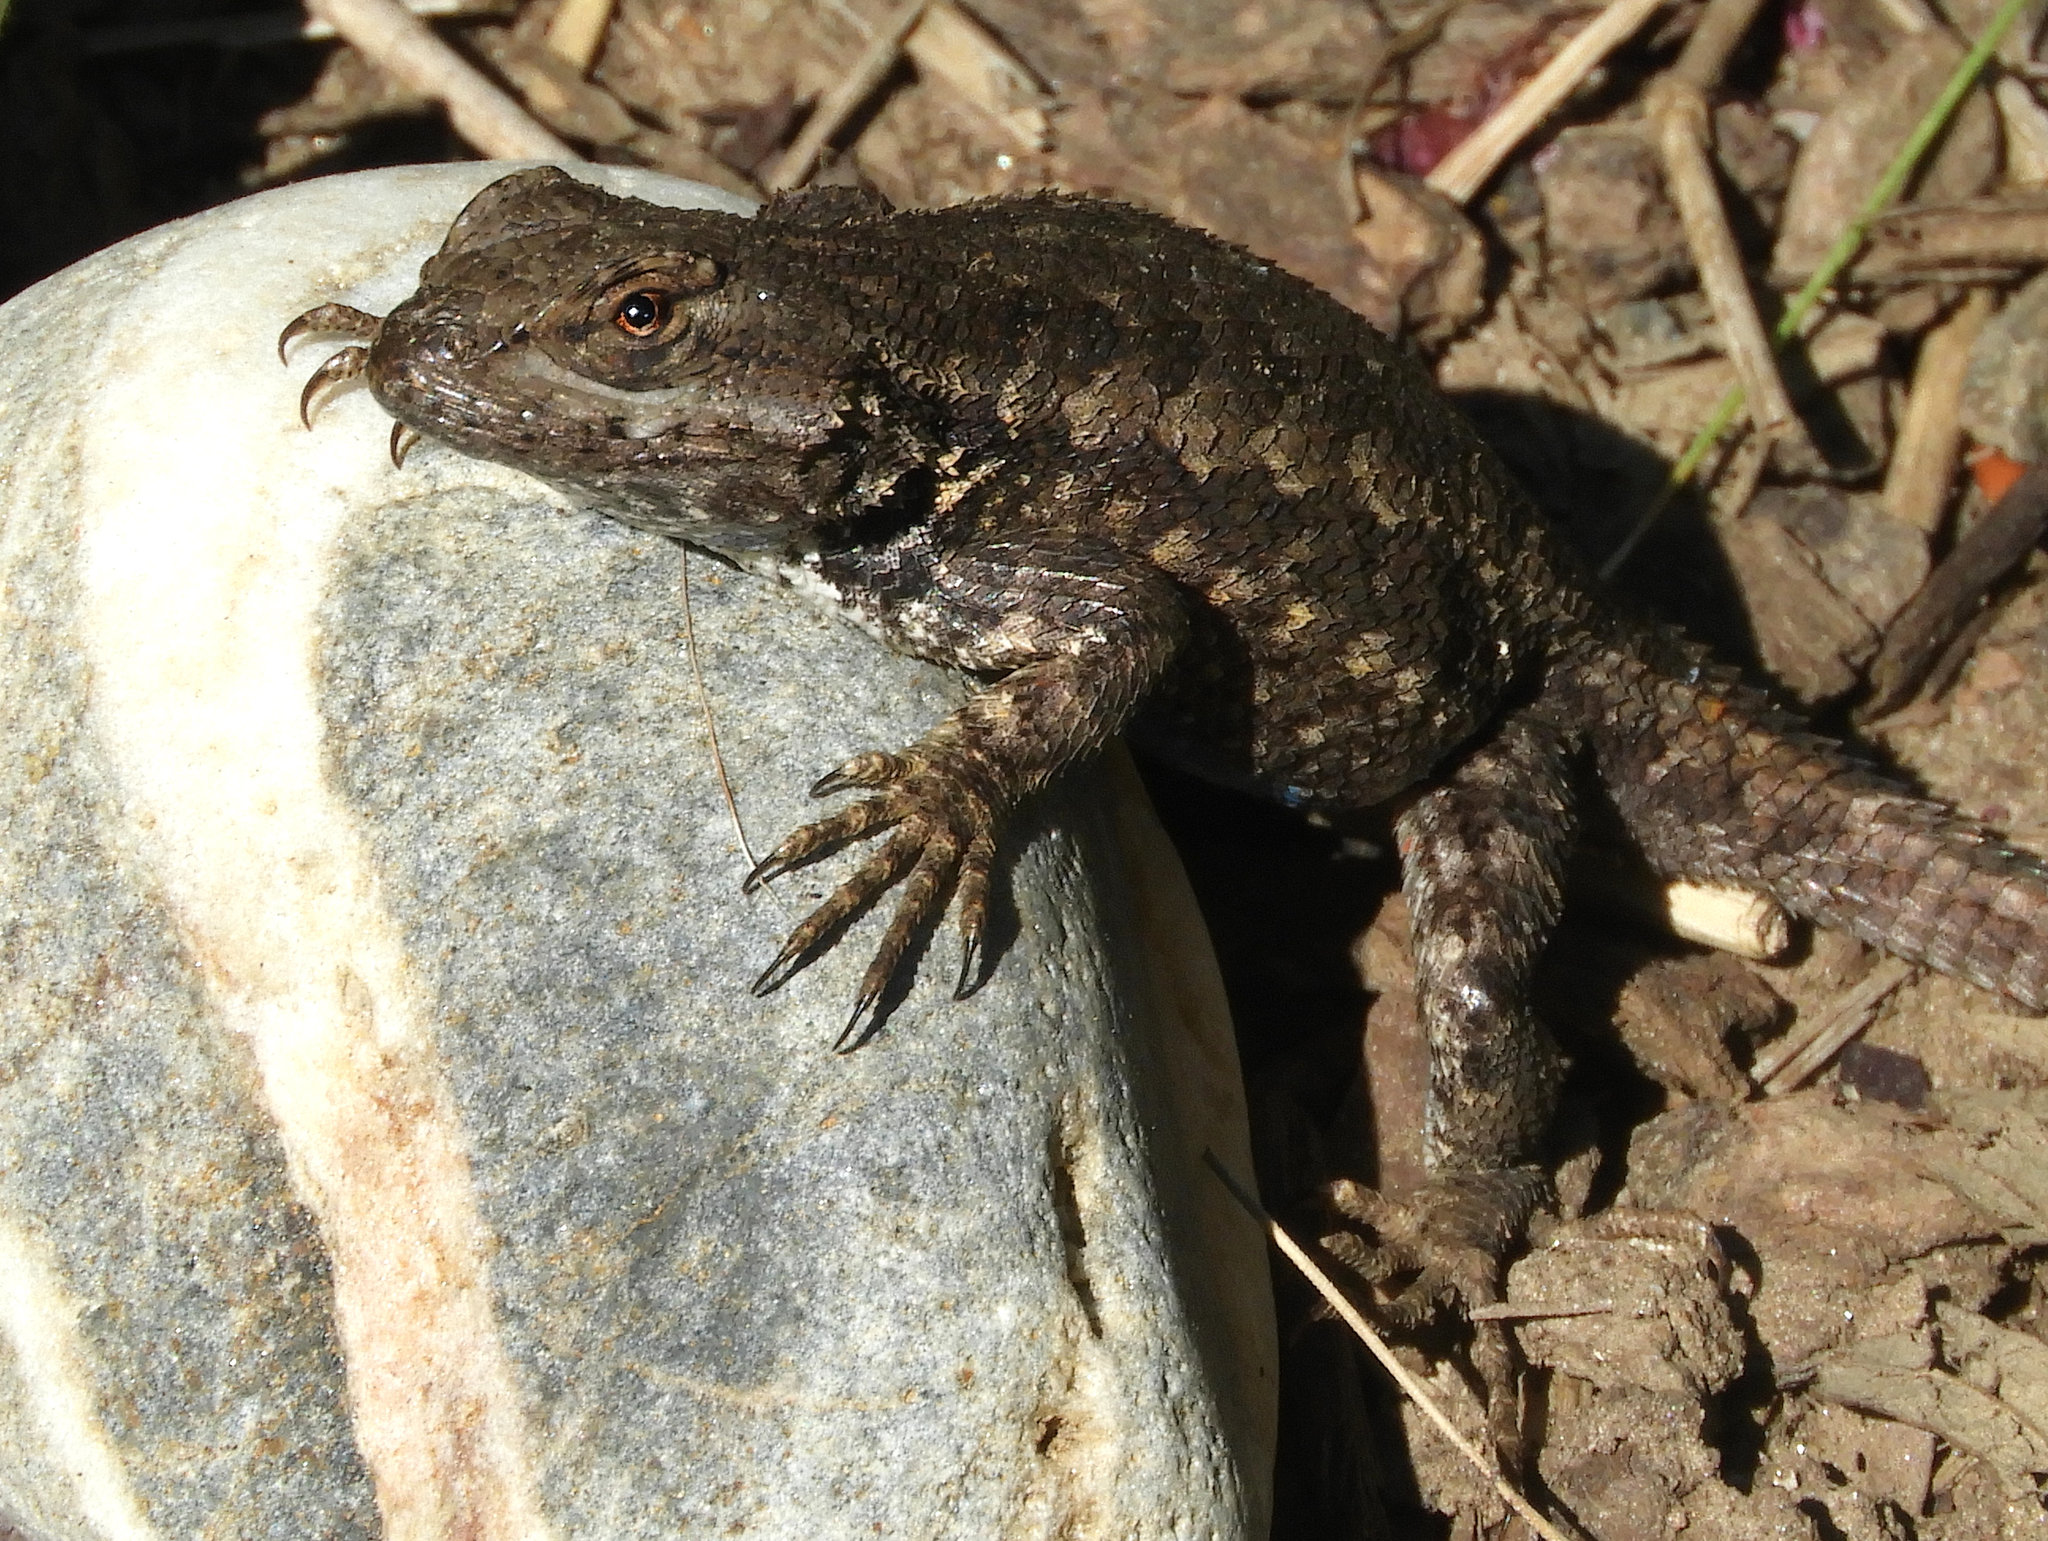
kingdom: Animalia
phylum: Chordata
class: Squamata
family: Phrynosomatidae
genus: Sceloporus
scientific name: Sceloporus occidentalis
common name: Western fence lizard
